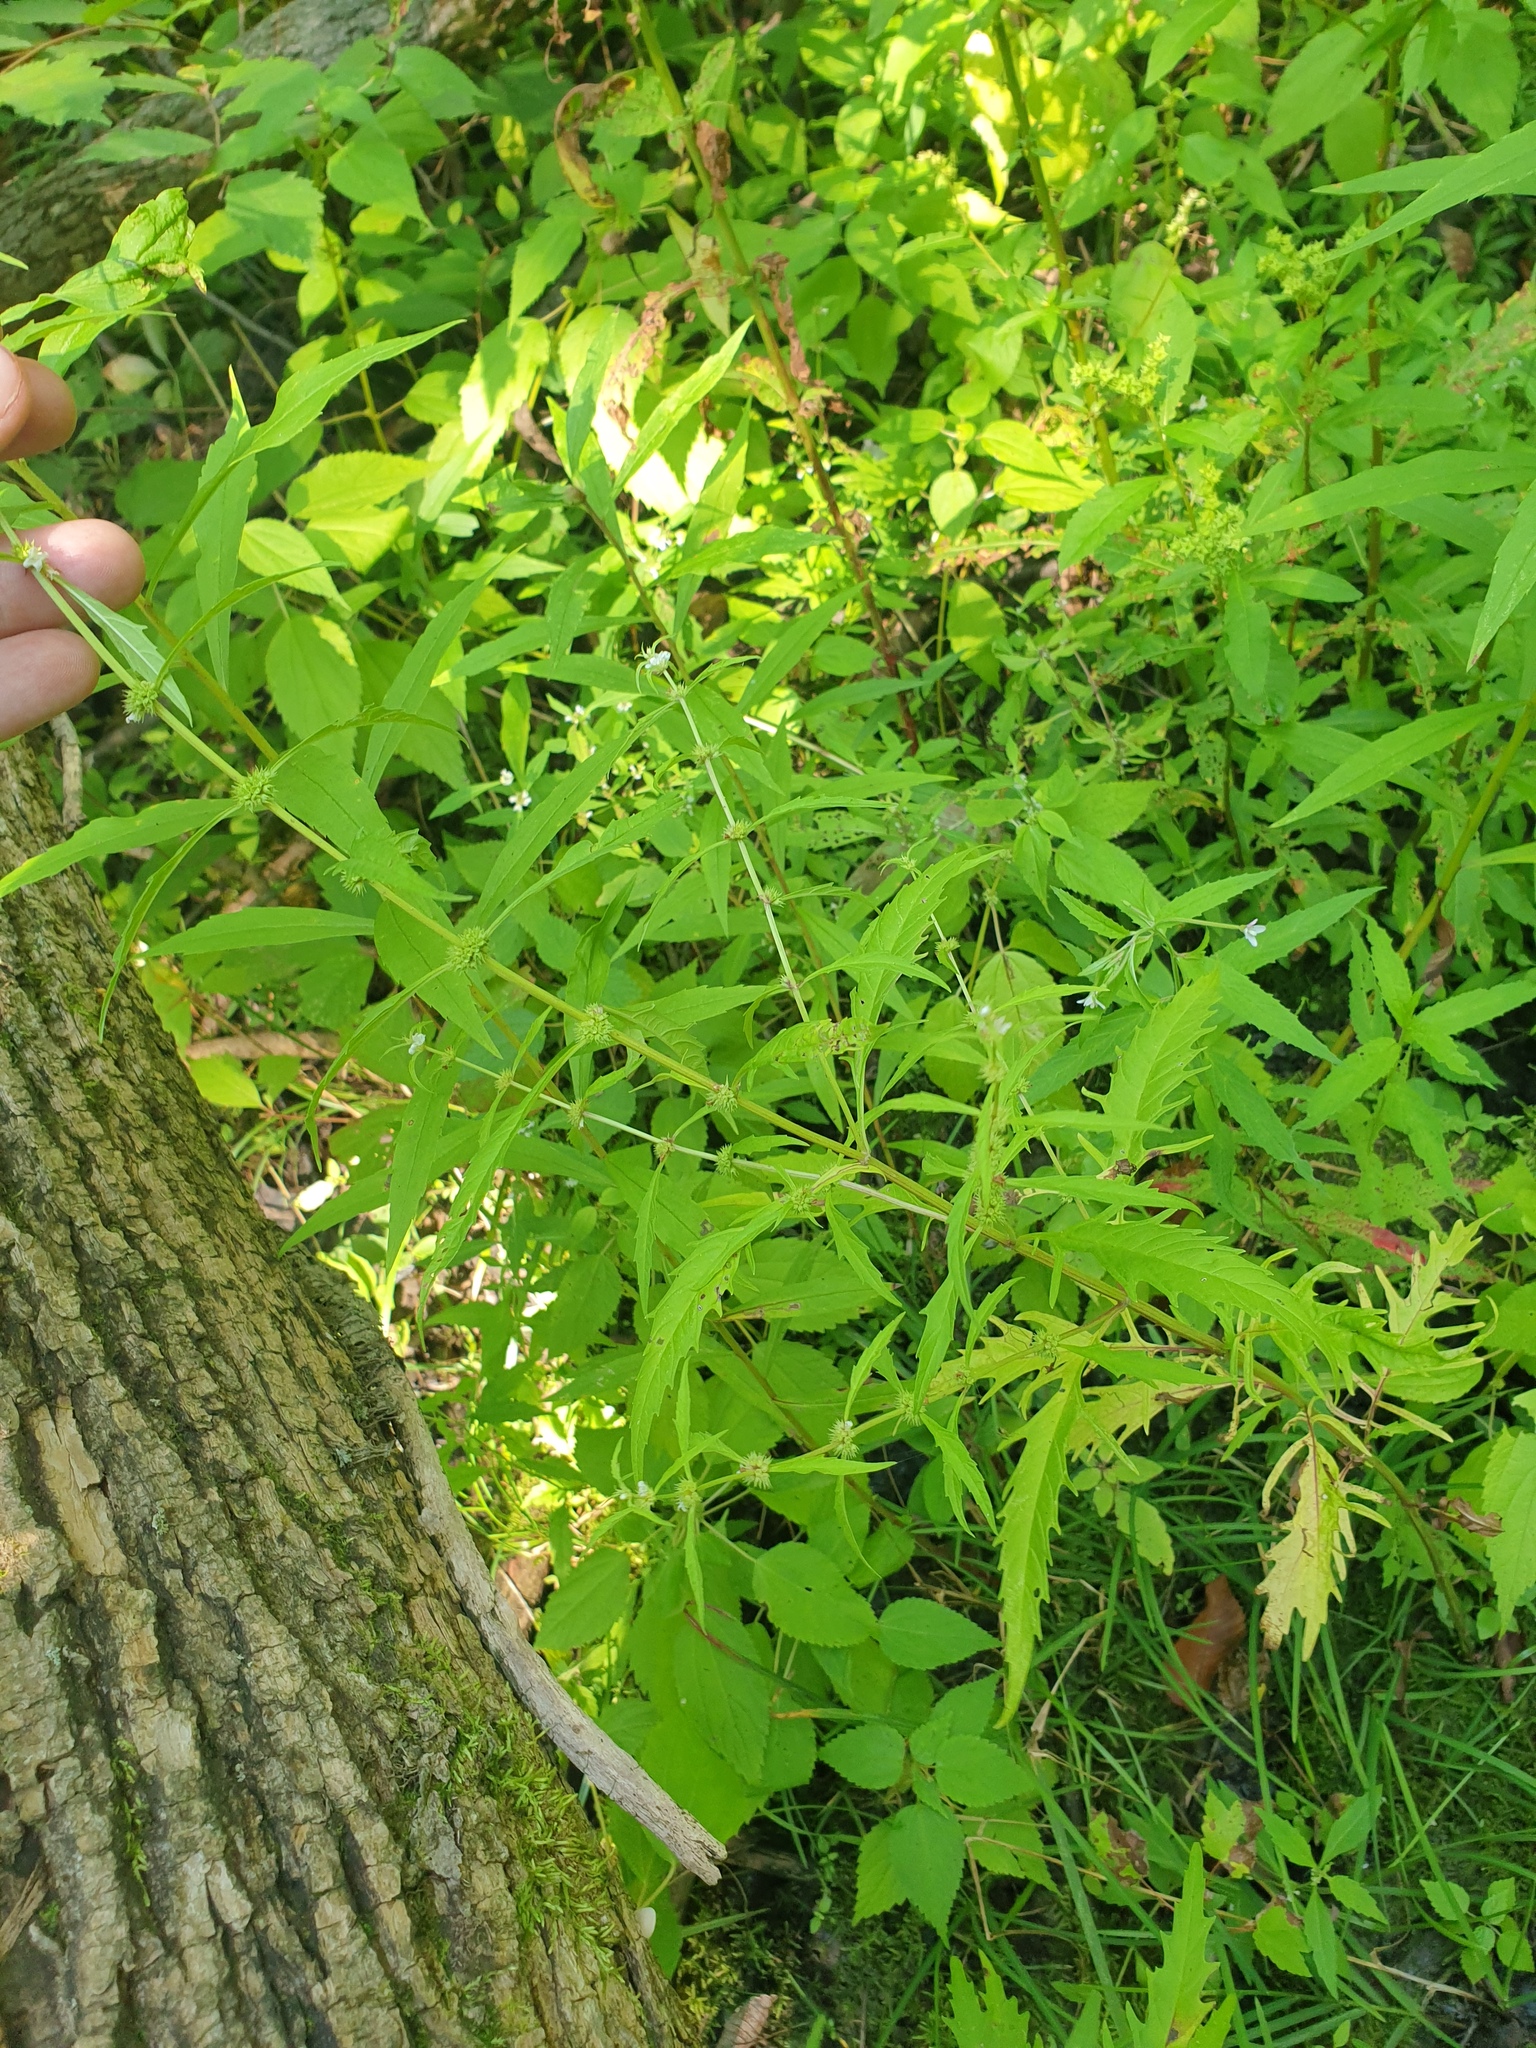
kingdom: Plantae
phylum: Tracheophyta
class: Magnoliopsida
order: Lamiales
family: Lamiaceae
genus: Lycopus
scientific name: Lycopus americanus
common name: American bugleweed
